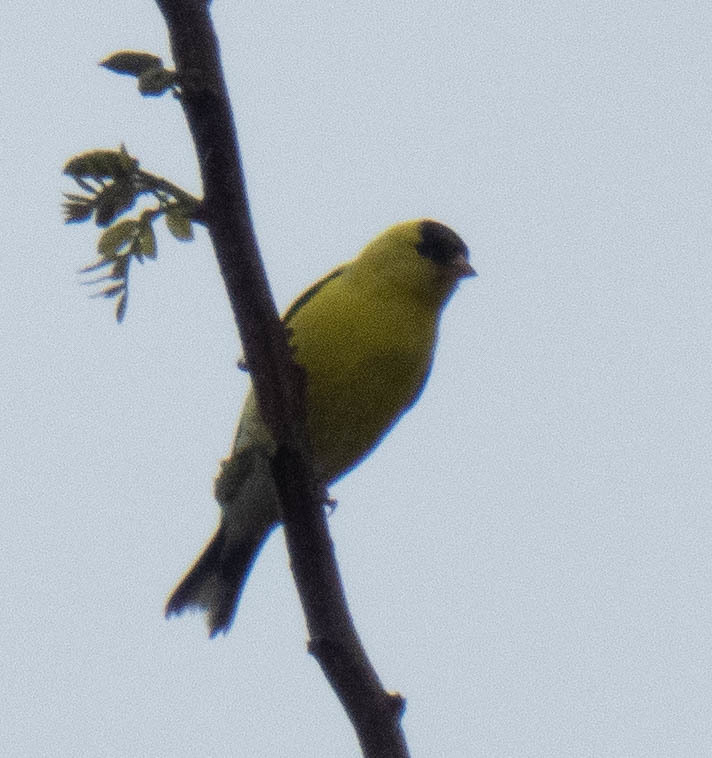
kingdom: Animalia
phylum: Chordata
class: Aves
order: Passeriformes
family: Fringillidae
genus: Spinus
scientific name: Spinus tristis
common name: American goldfinch
